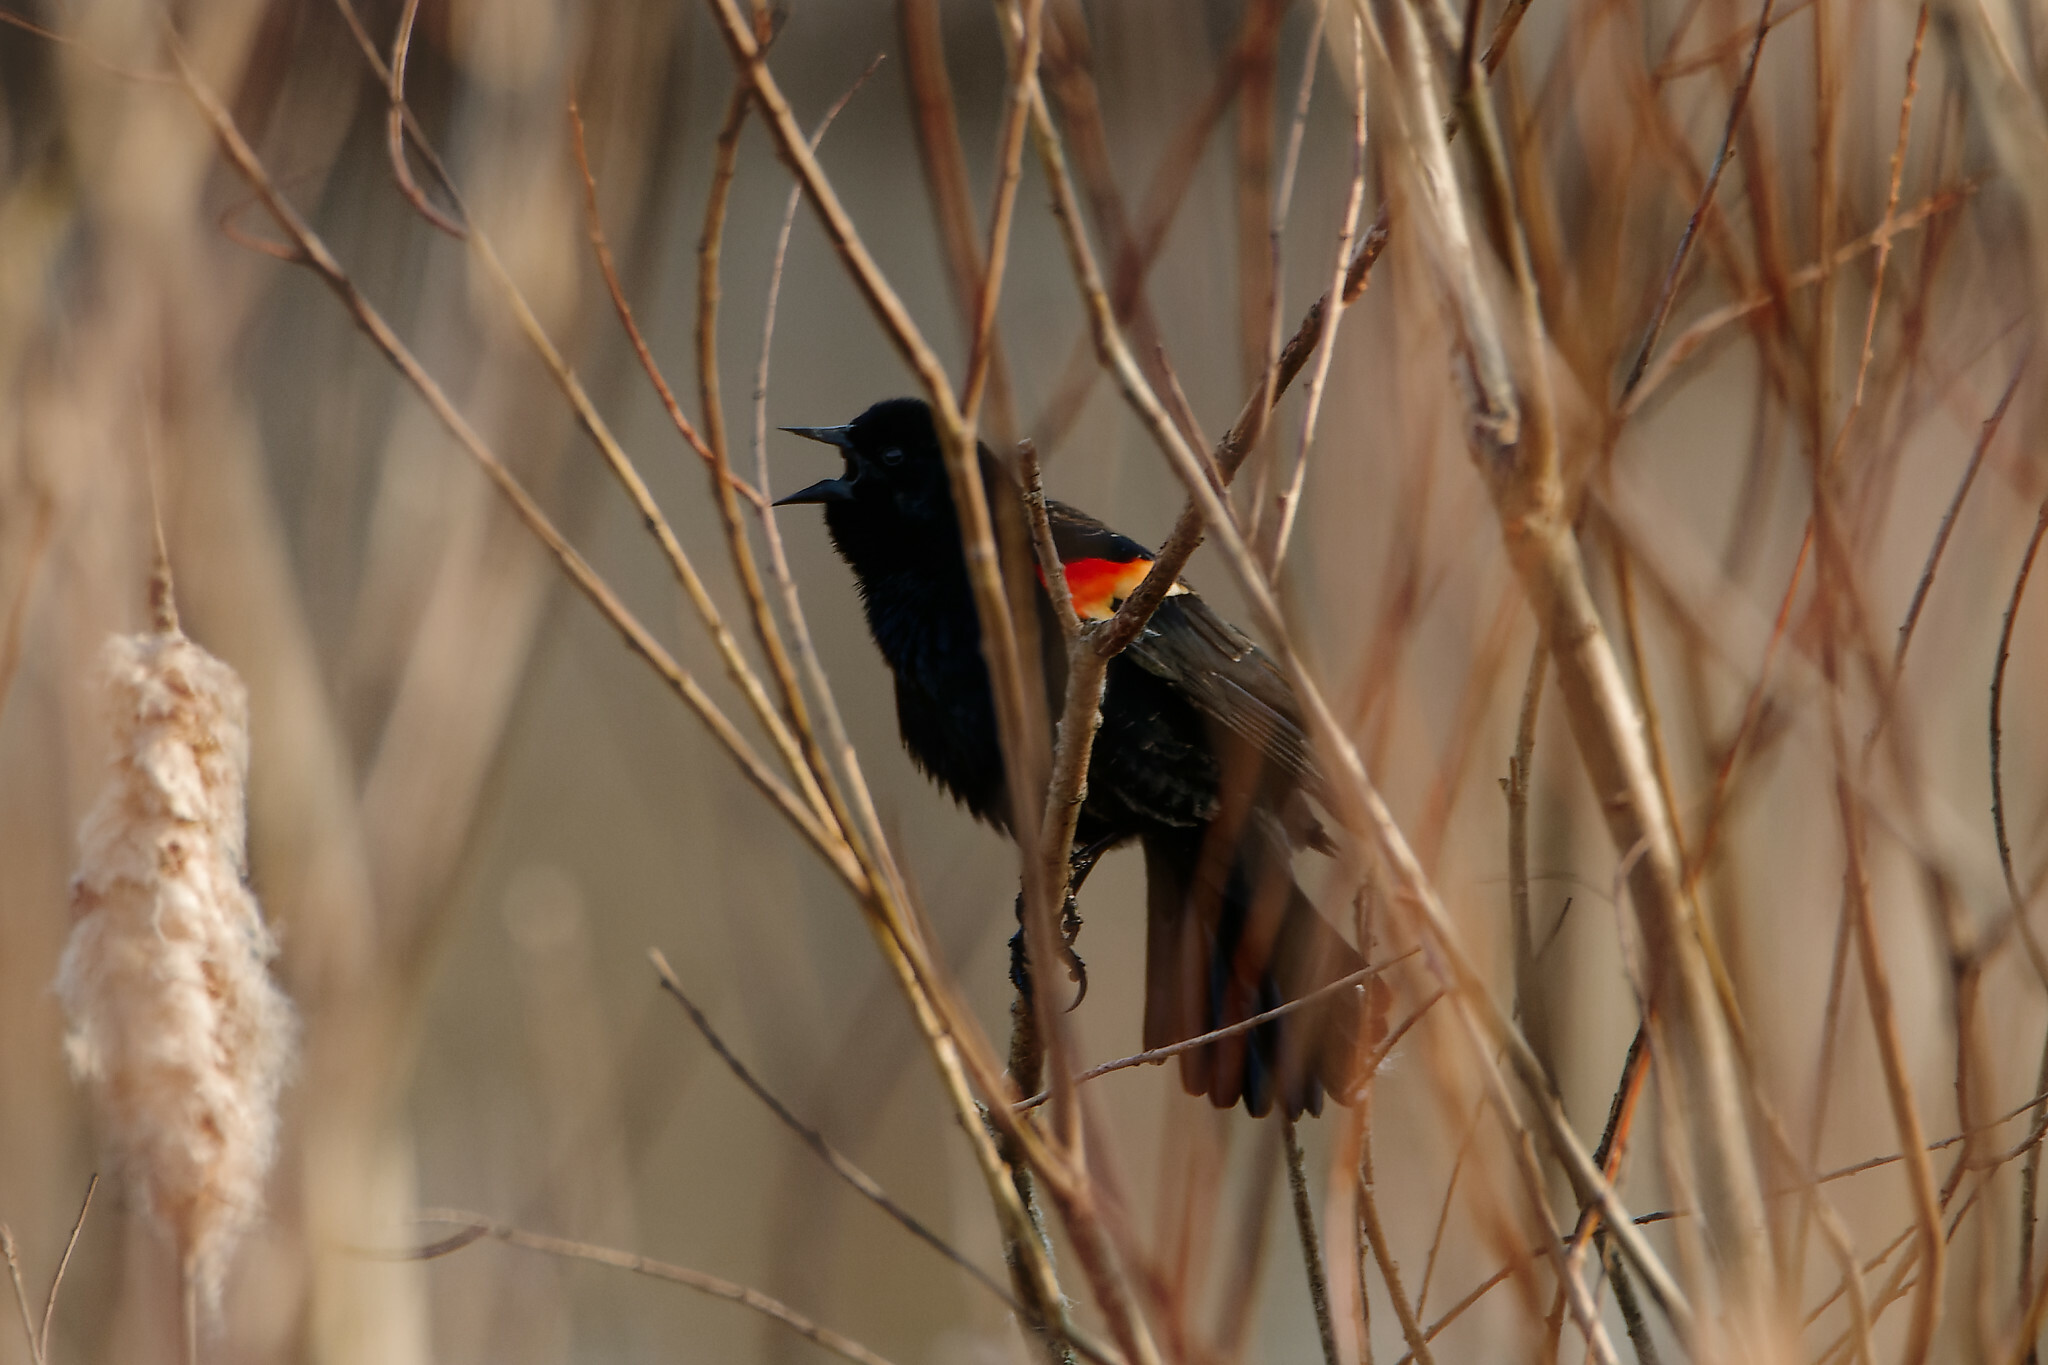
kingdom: Animalia
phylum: Chordata
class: Aves
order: Passeriformes
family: Icteridae
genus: Agelaius
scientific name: Agelaius phoeniceus
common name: Red-winged blackbird
